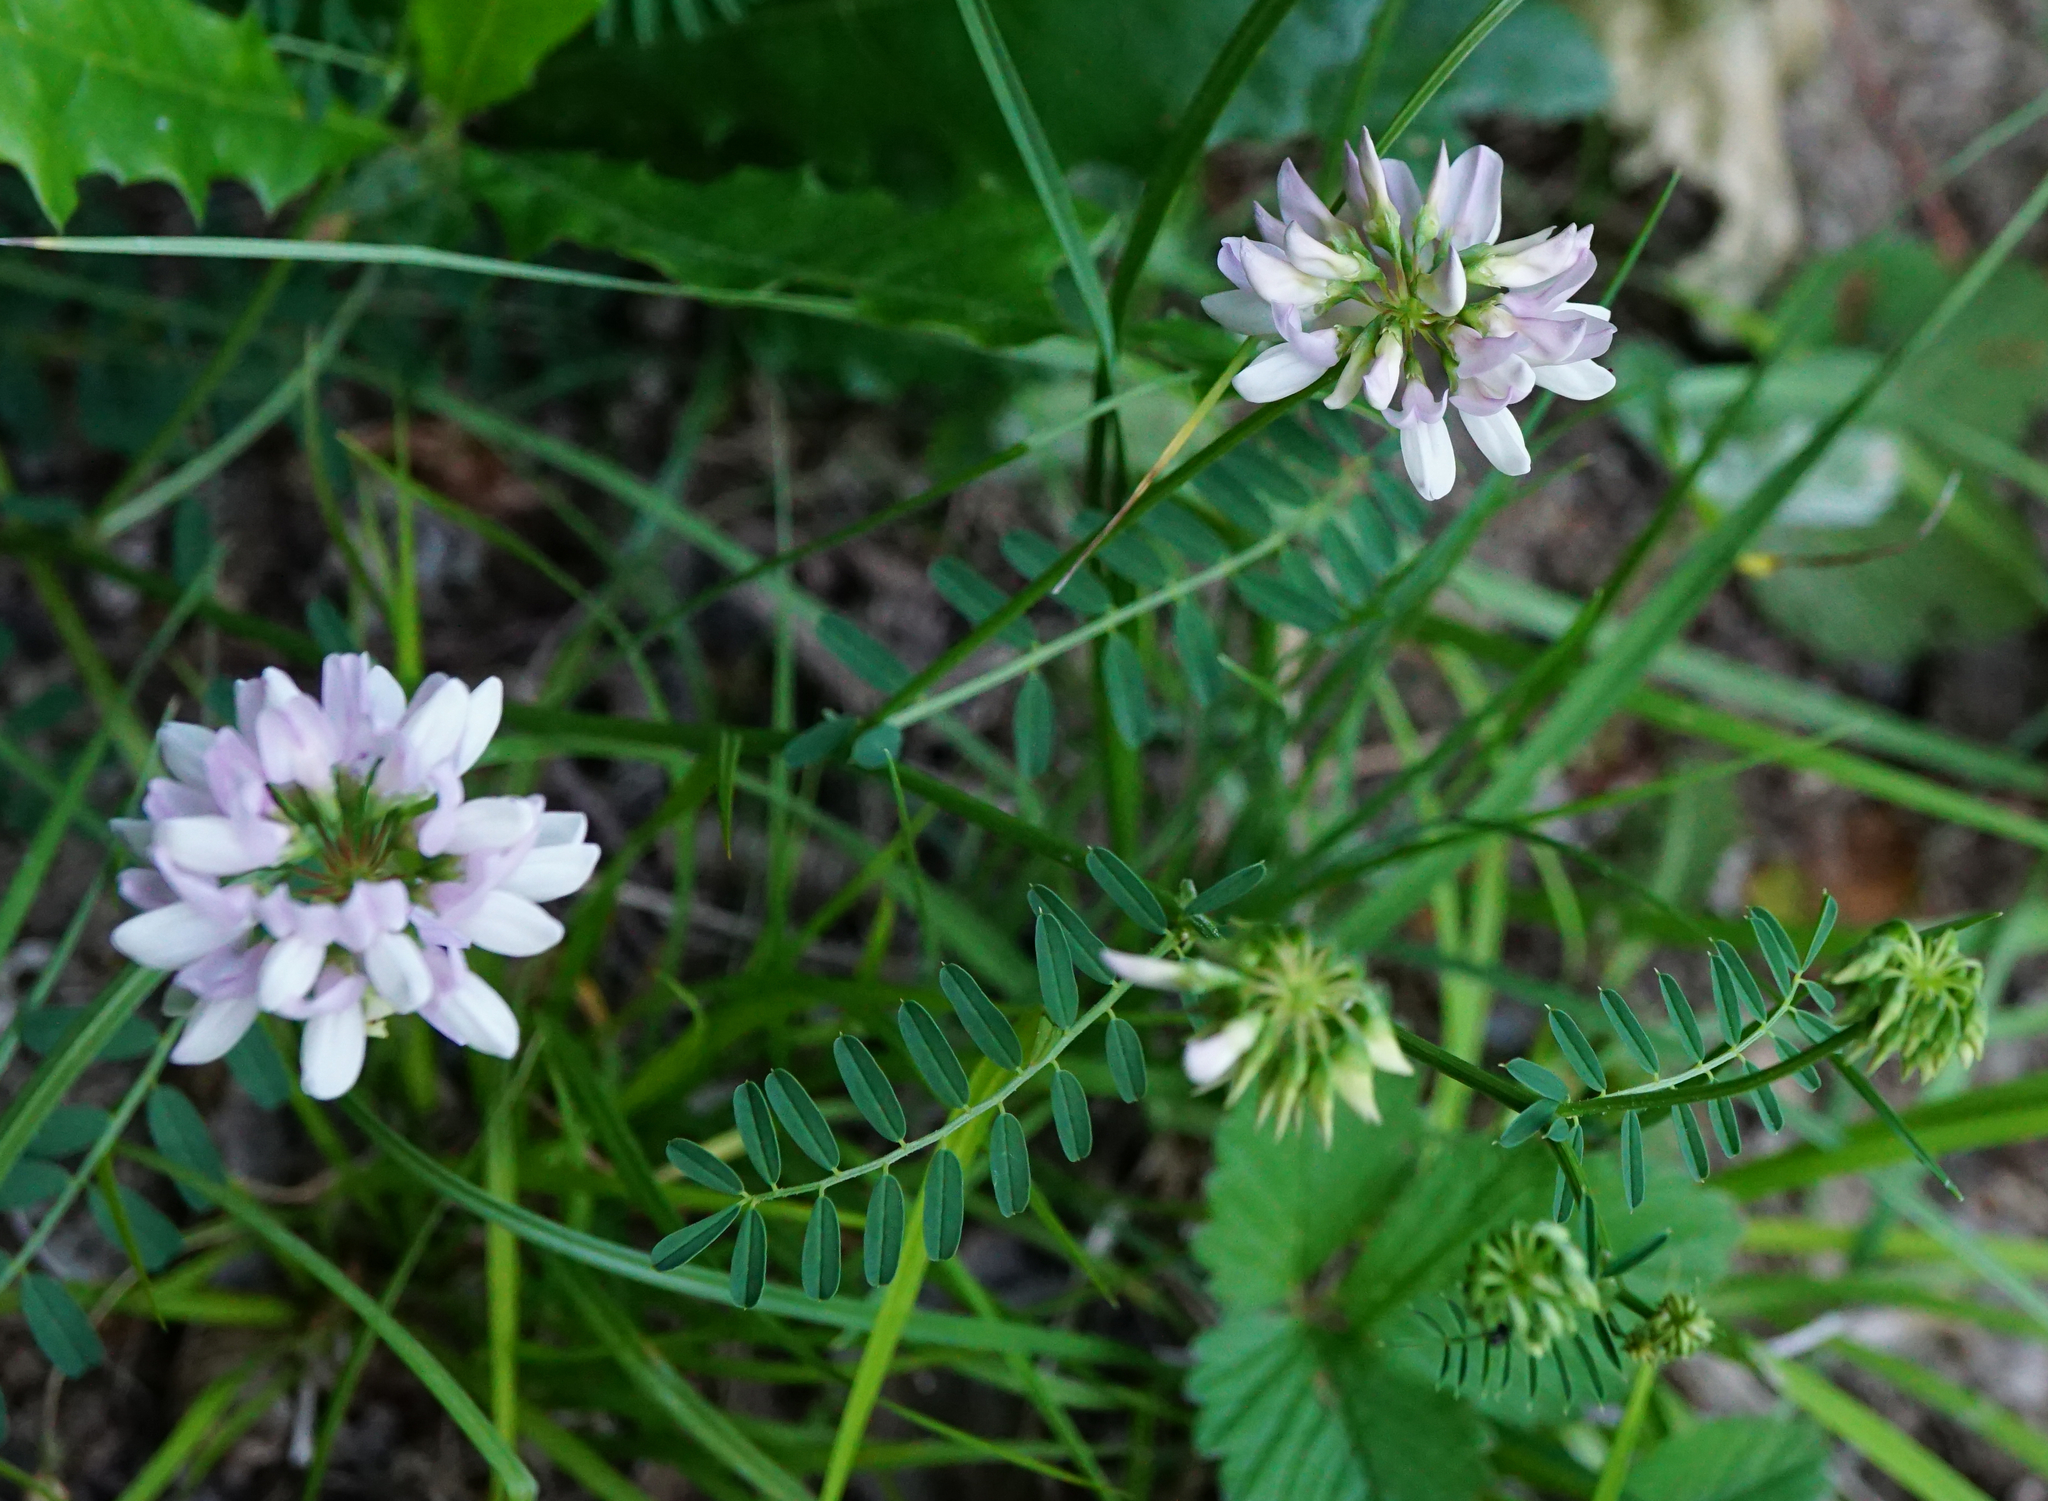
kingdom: Plantae
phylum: Tracheophyta
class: Magnoliopsida
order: Fabales
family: Fabaceae
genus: Coronilla
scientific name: Coronilla varia
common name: Crownvetch
